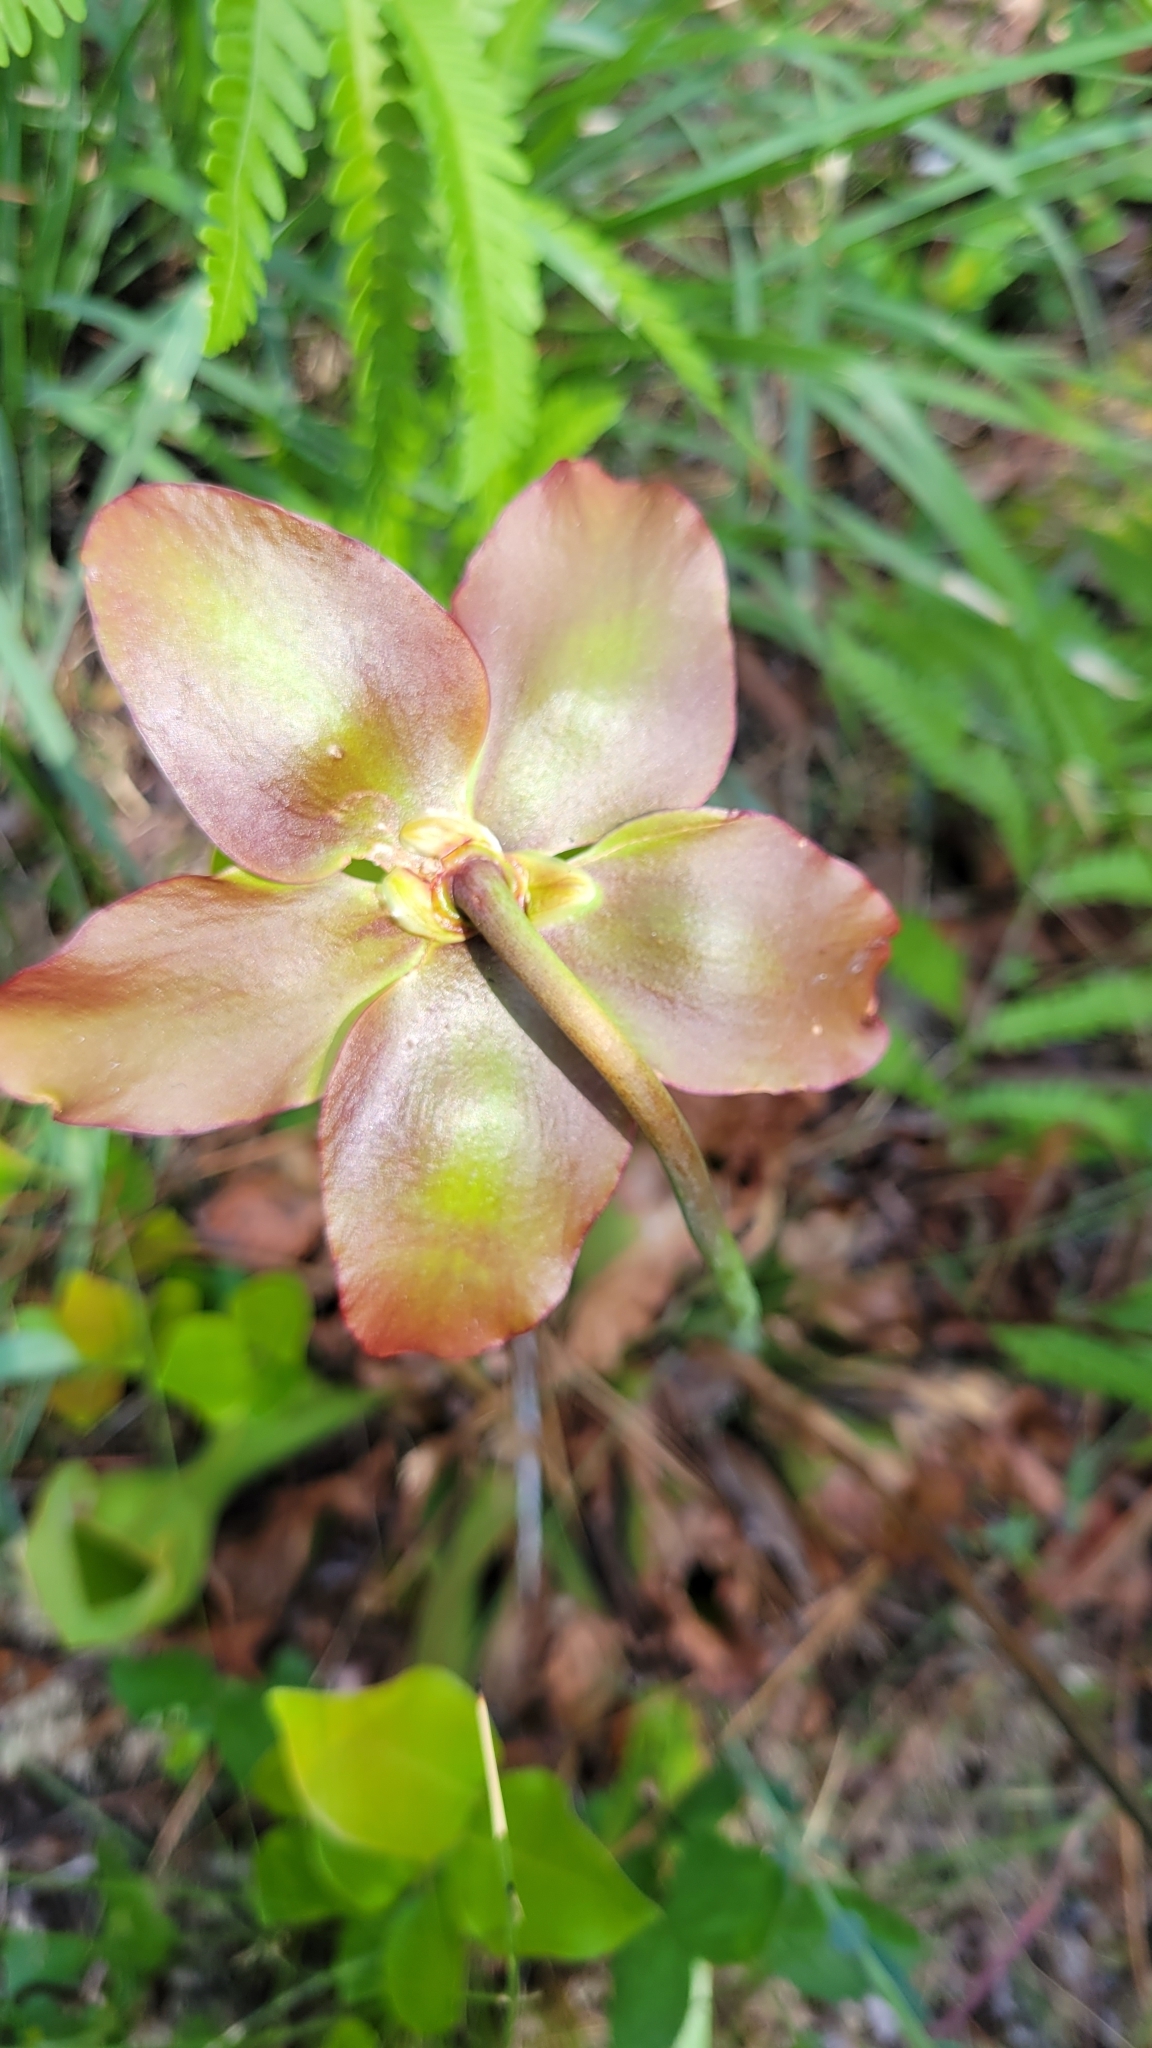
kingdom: Plantae
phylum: Tracheophyta
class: Magnoliopsida
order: Ericales
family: Sarraceniaceae
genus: Sarracenia
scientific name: Sarracenia purpurea
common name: Pitcherplant
